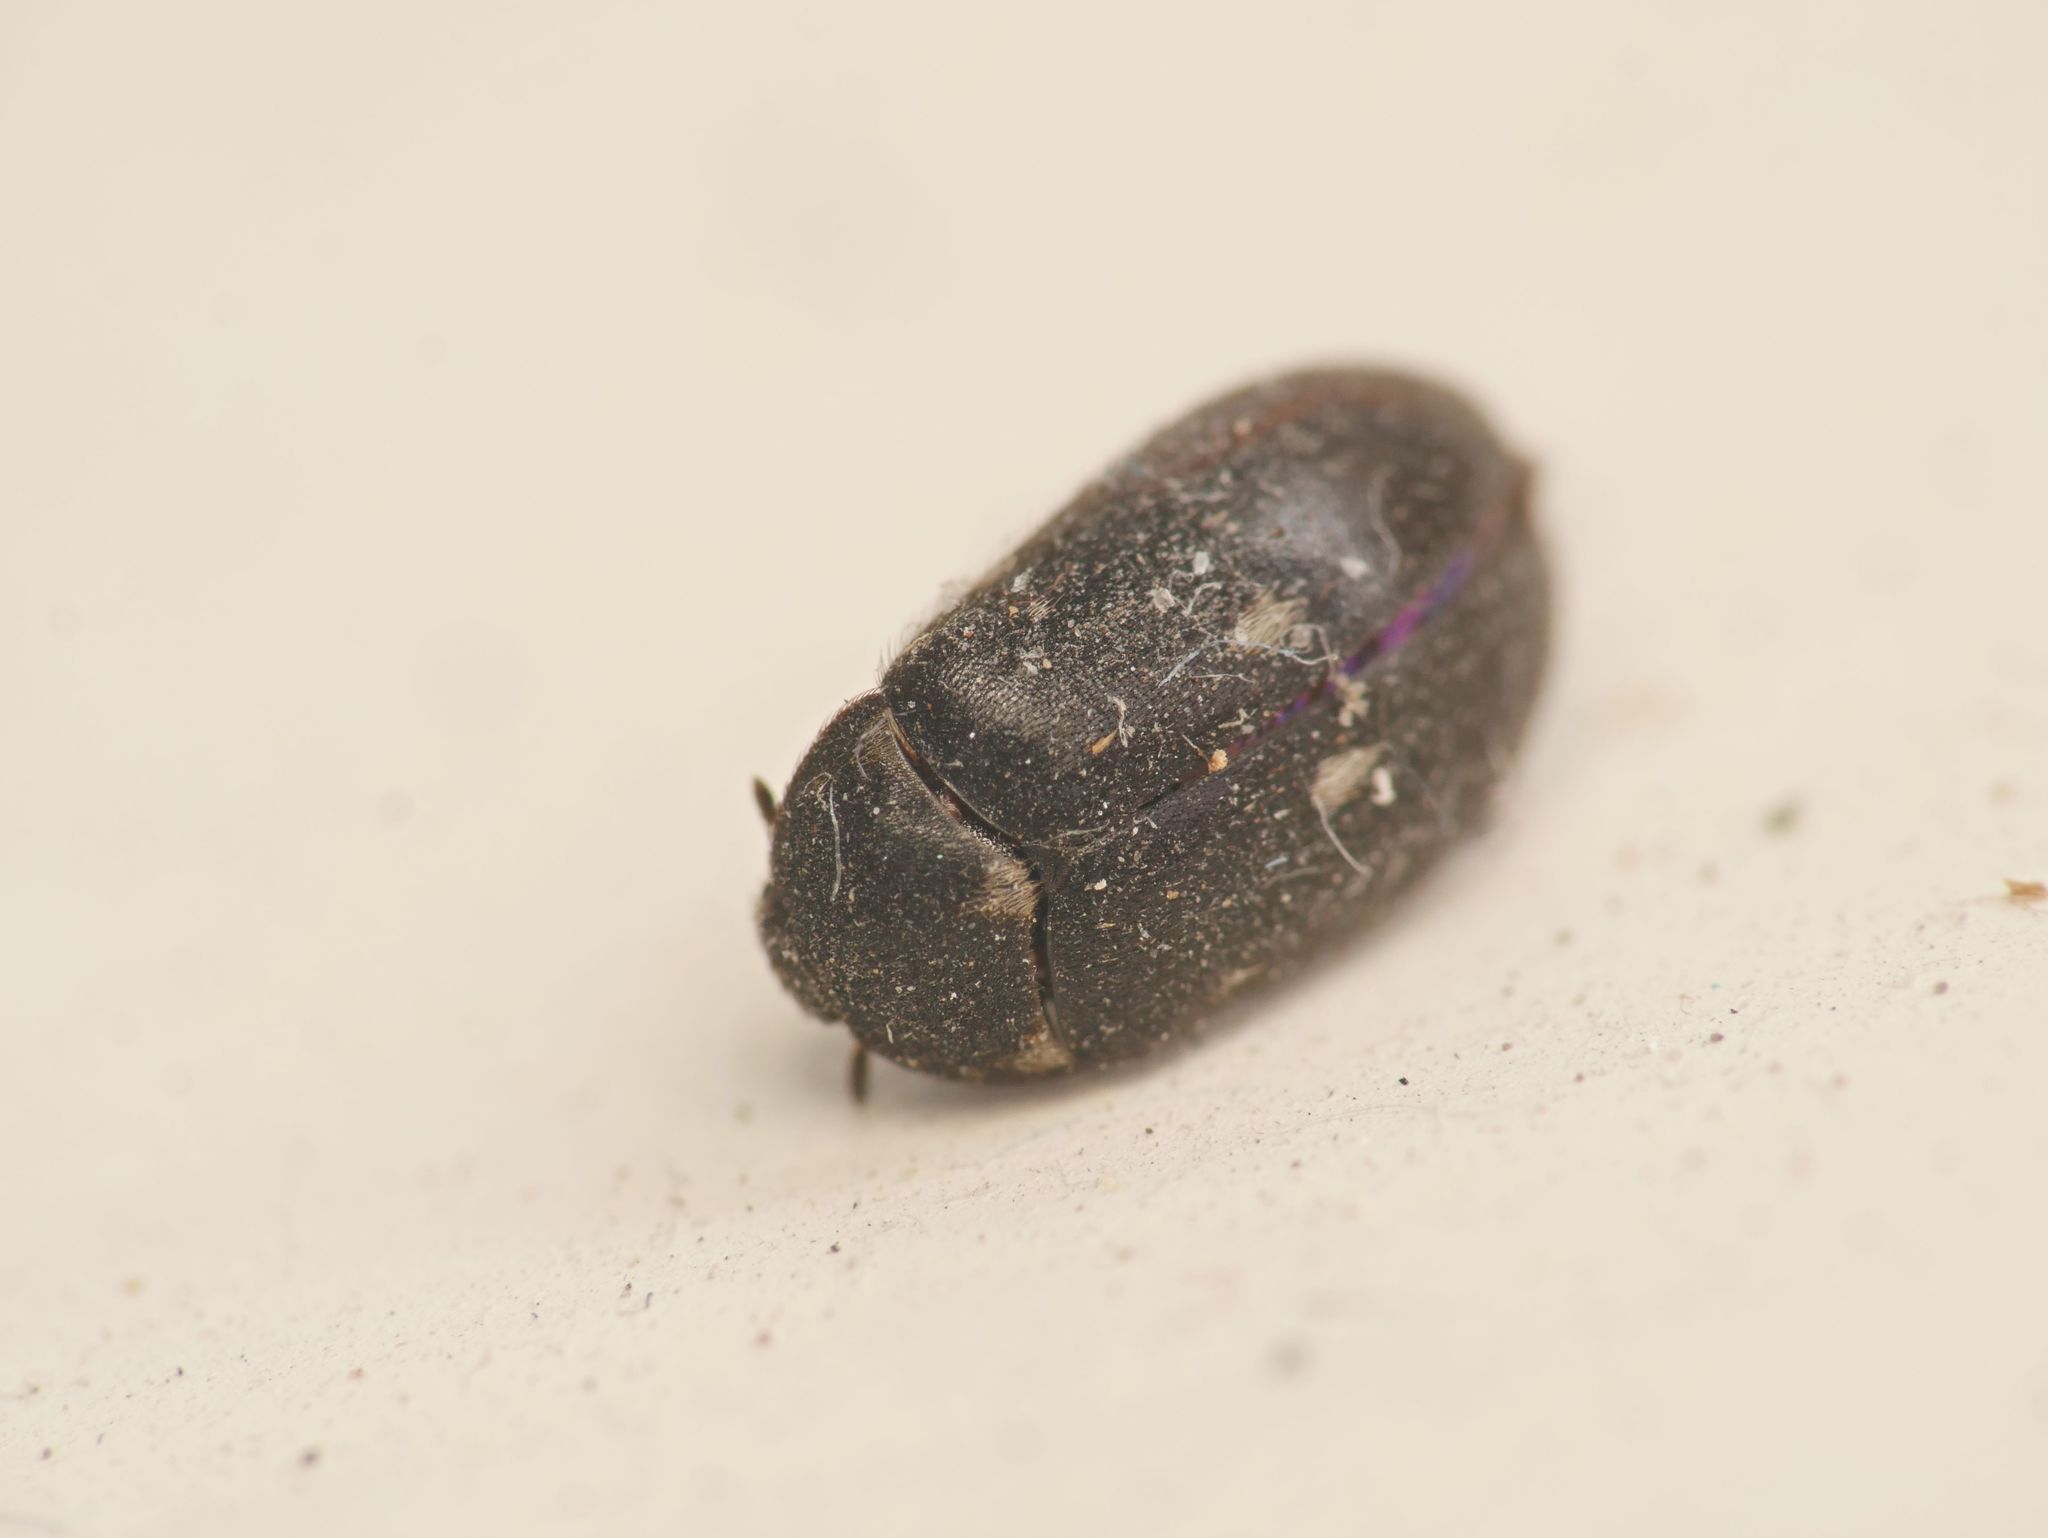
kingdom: Animalia
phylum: Arthropoda
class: Insecta
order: Coleoptera
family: Dermestidae
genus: Attagenus
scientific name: Attagenus pellio
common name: Two-spotted carpet beetle
